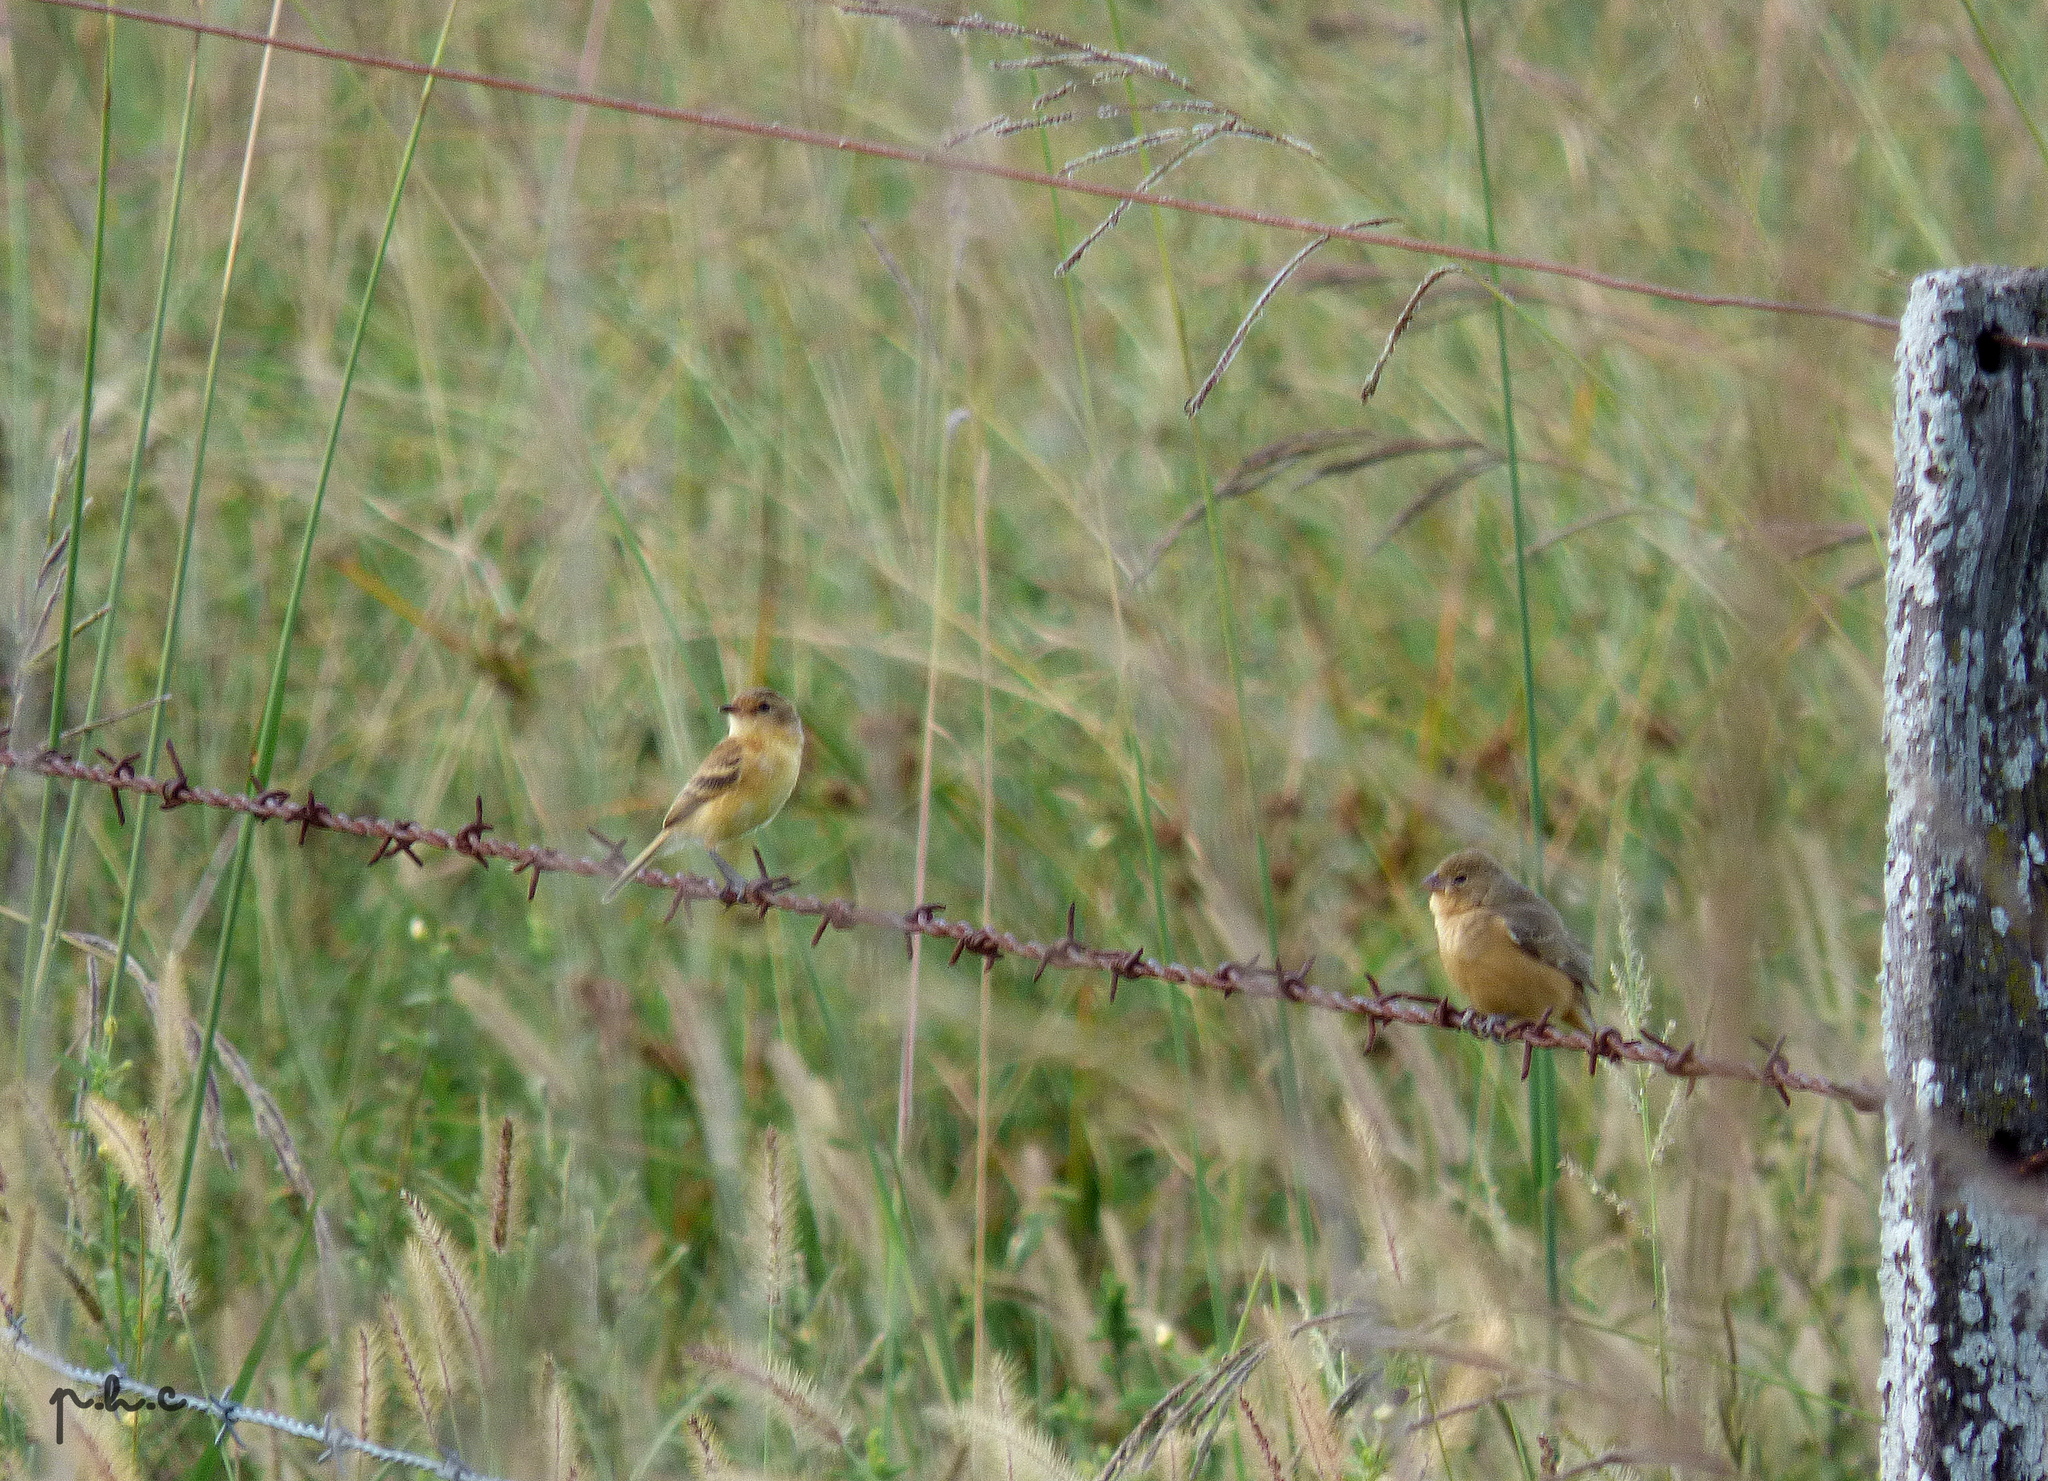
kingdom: Animalia
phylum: Chordata
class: Aves
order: Passeriformes
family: Tyrannidae
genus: Polystictus
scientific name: Polystictus pectoralis
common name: Bearded tachuri
